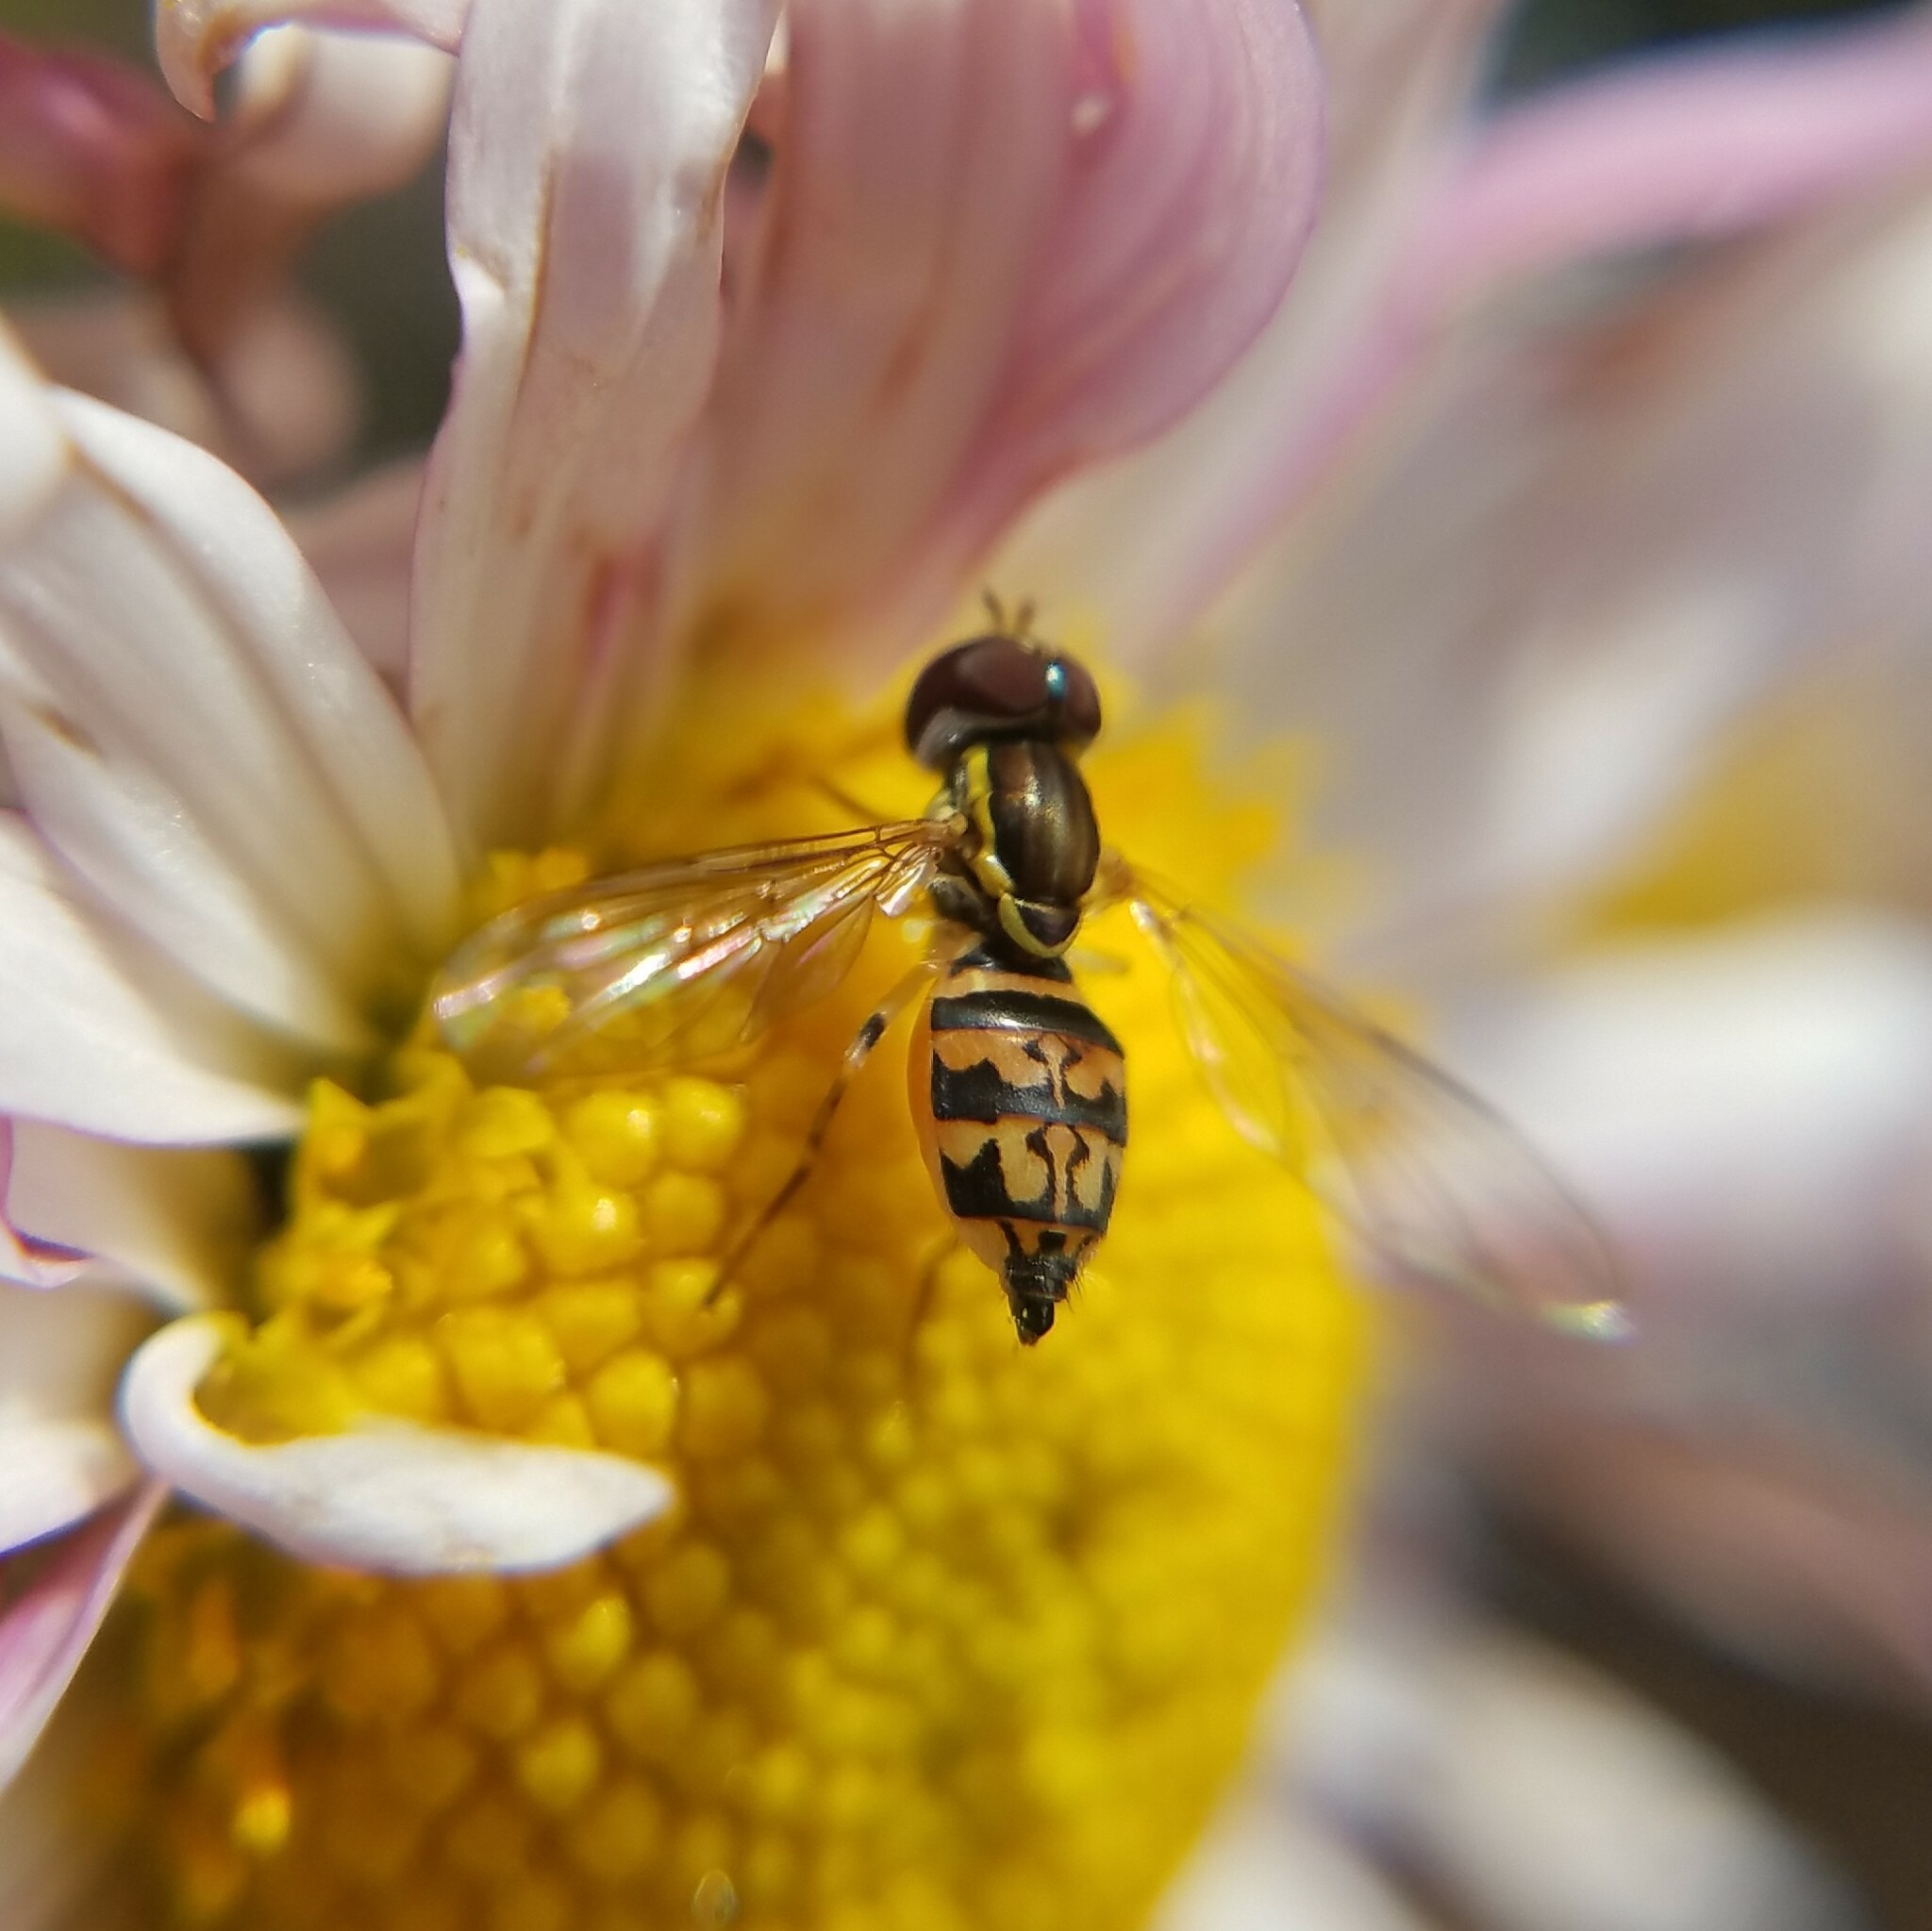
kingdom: Animalia
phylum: Arthropoda
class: Insecta
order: Diptera
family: Syrphidae
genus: Toxomerus
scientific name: Toxomerus geminatus
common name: Eastern calligrapher
